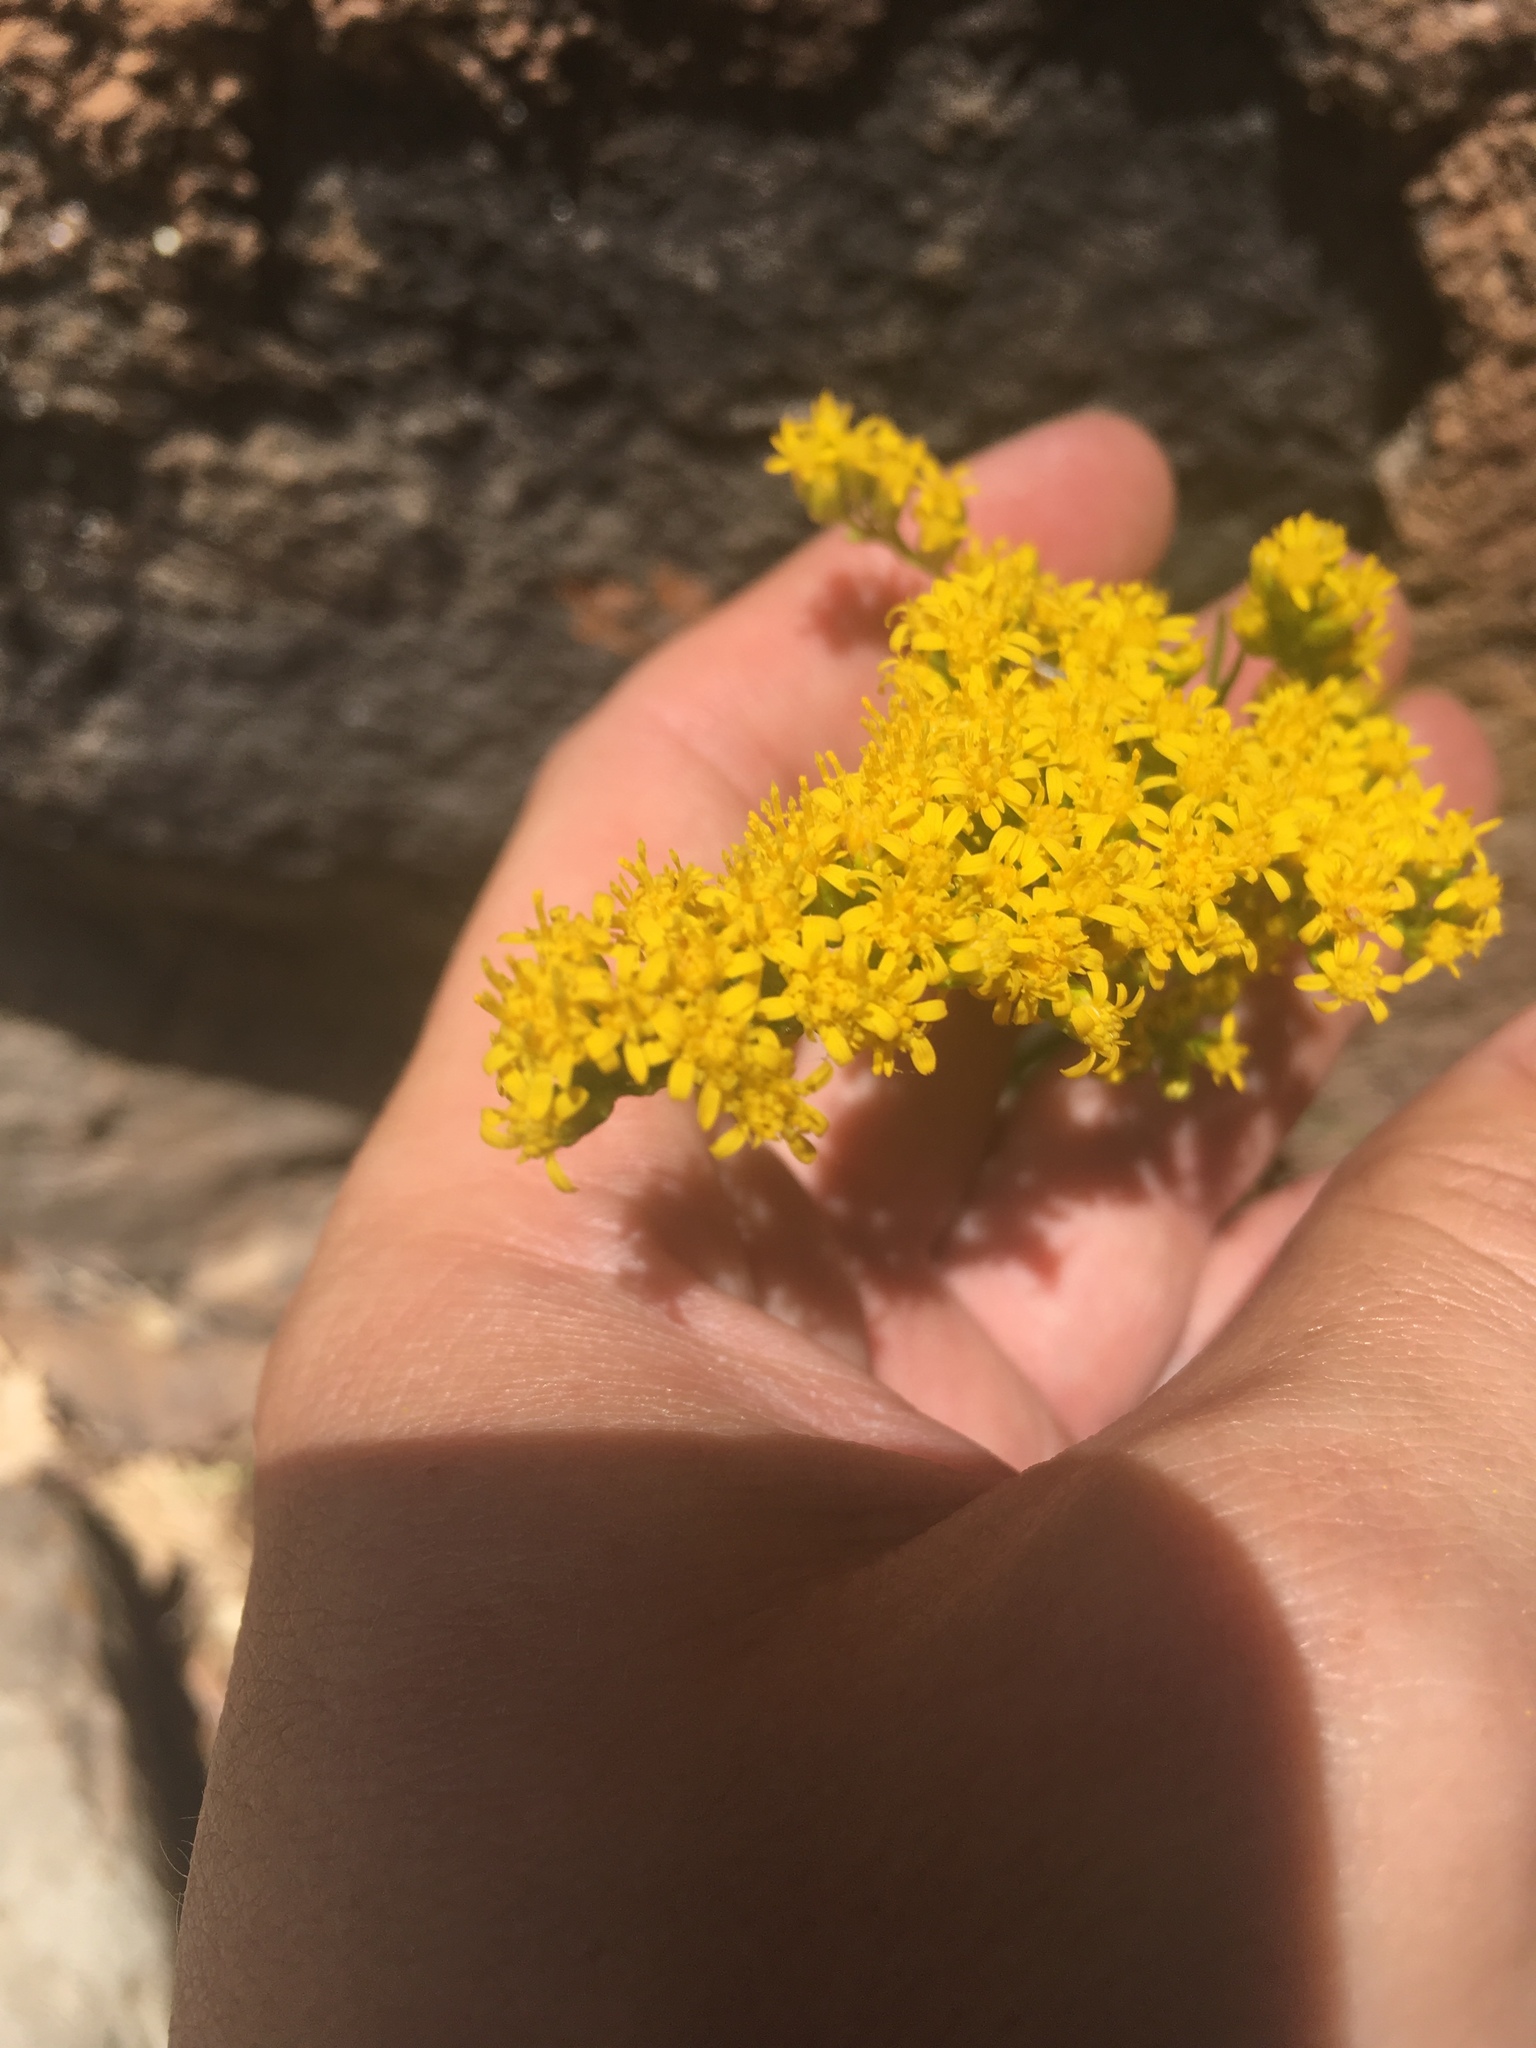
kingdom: Plantae
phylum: Tracheophyta
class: Magnoliopsida
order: Asterales
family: Asteraceae
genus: Solidago
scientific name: Solidago missouriensis
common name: Prairie goldenrod
